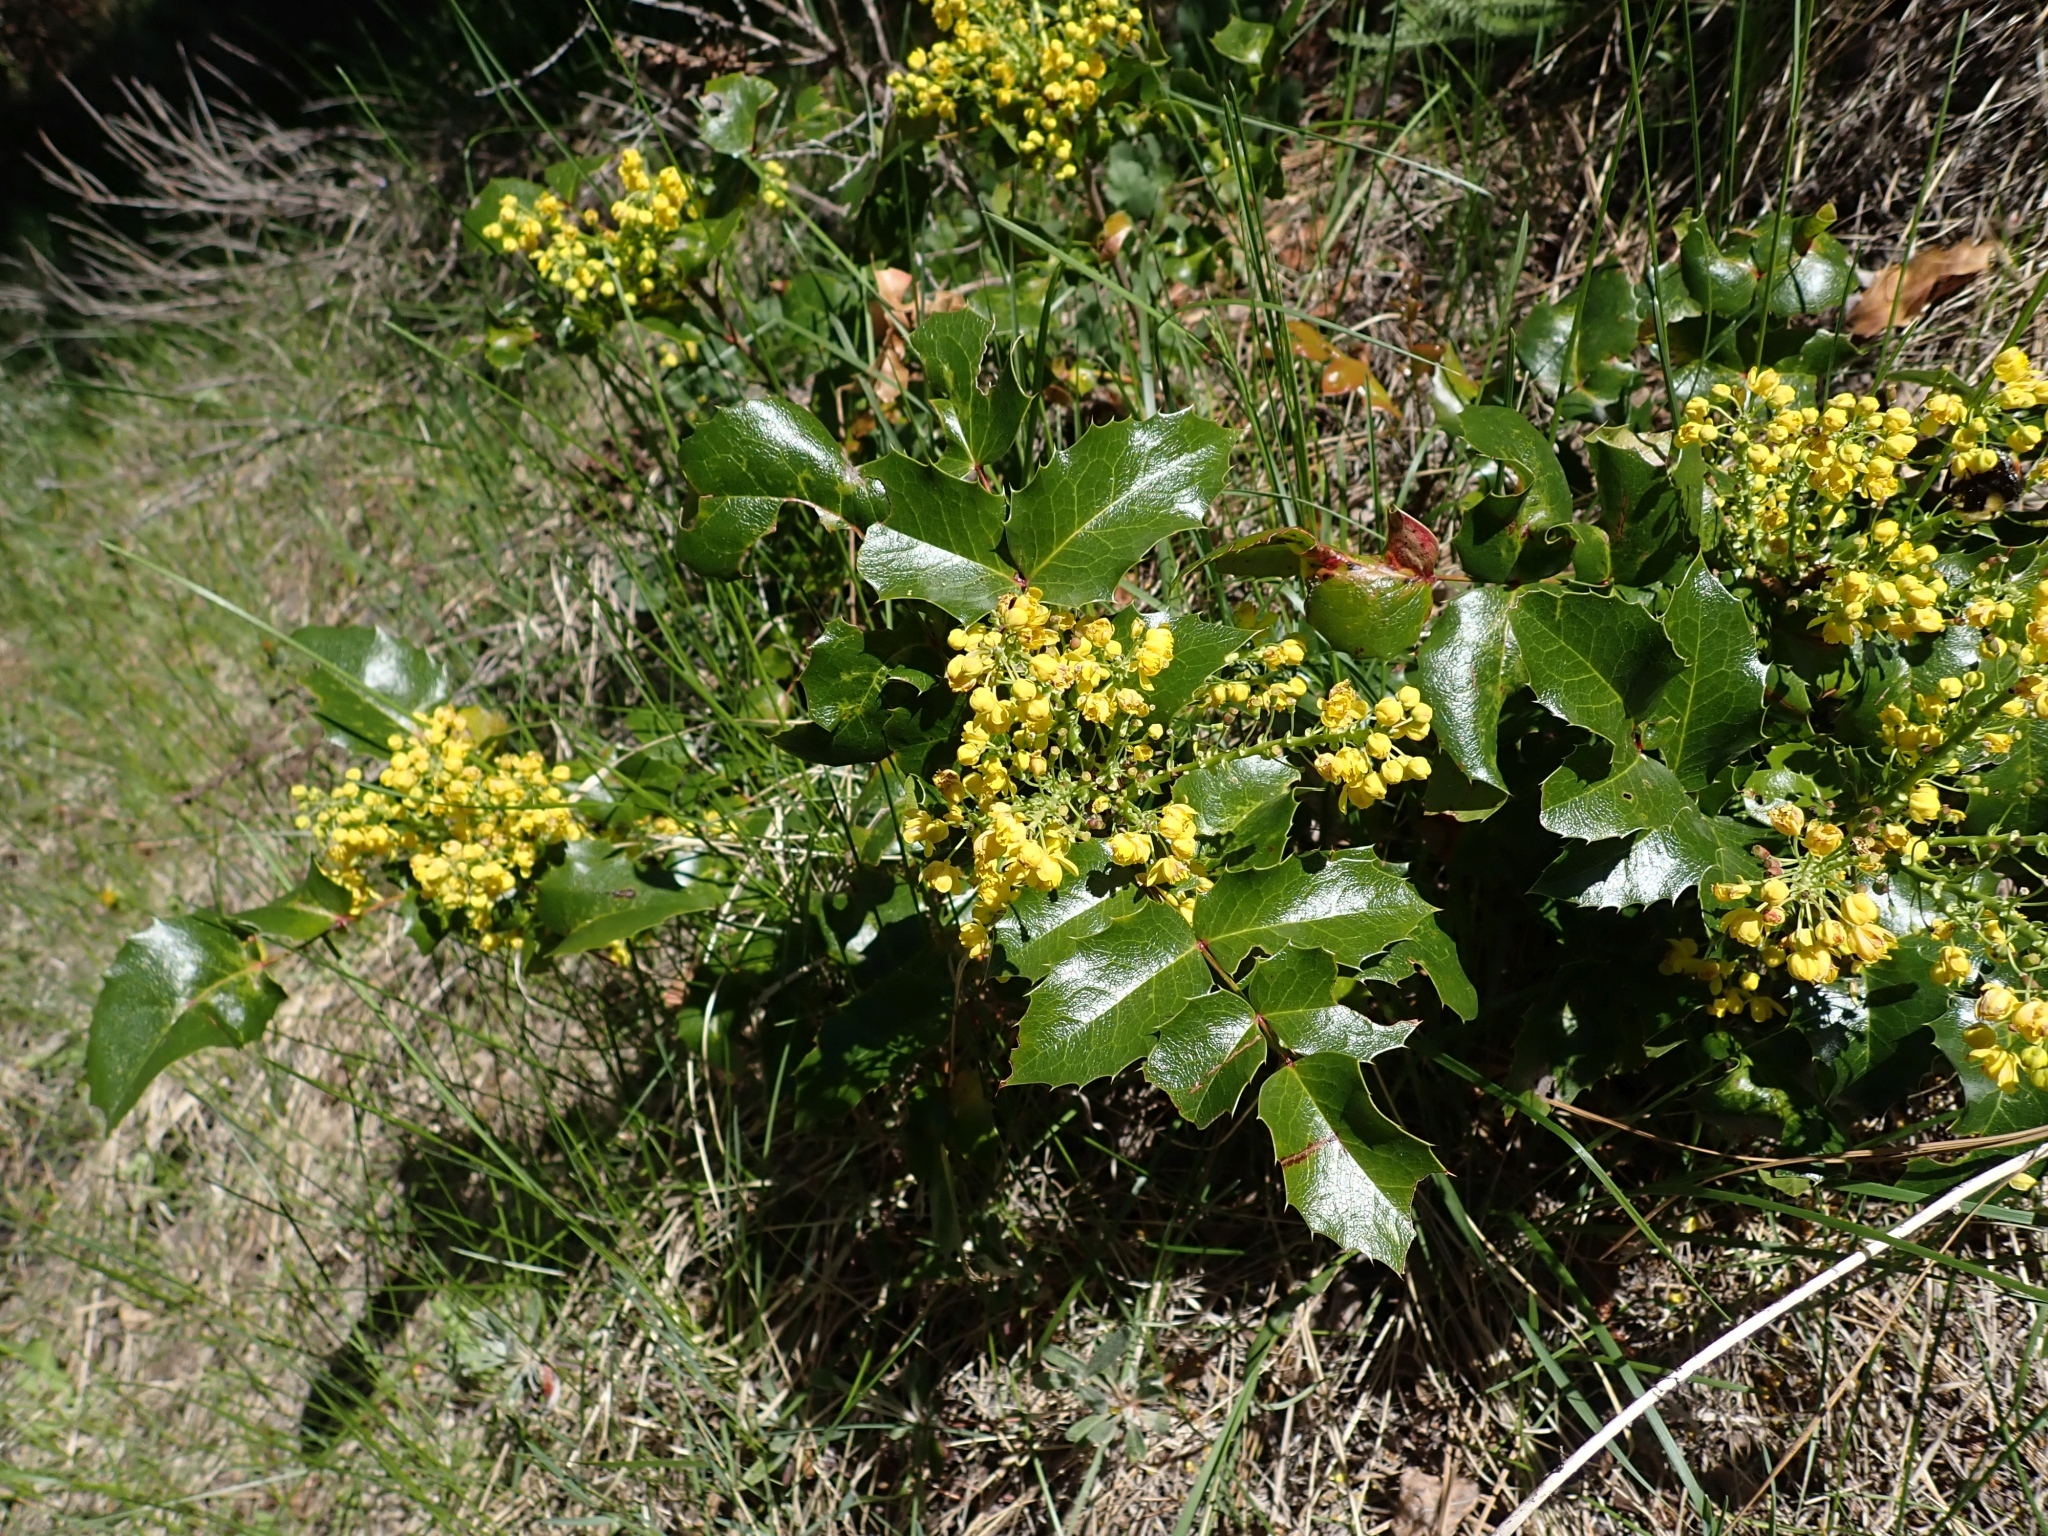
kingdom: Plantae
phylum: Tracheophyta
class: Magnoliopsida
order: Ranunculales
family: Berberidaceae
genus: Mahonia
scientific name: Mahonia aquifolium
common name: Oregon-grape
